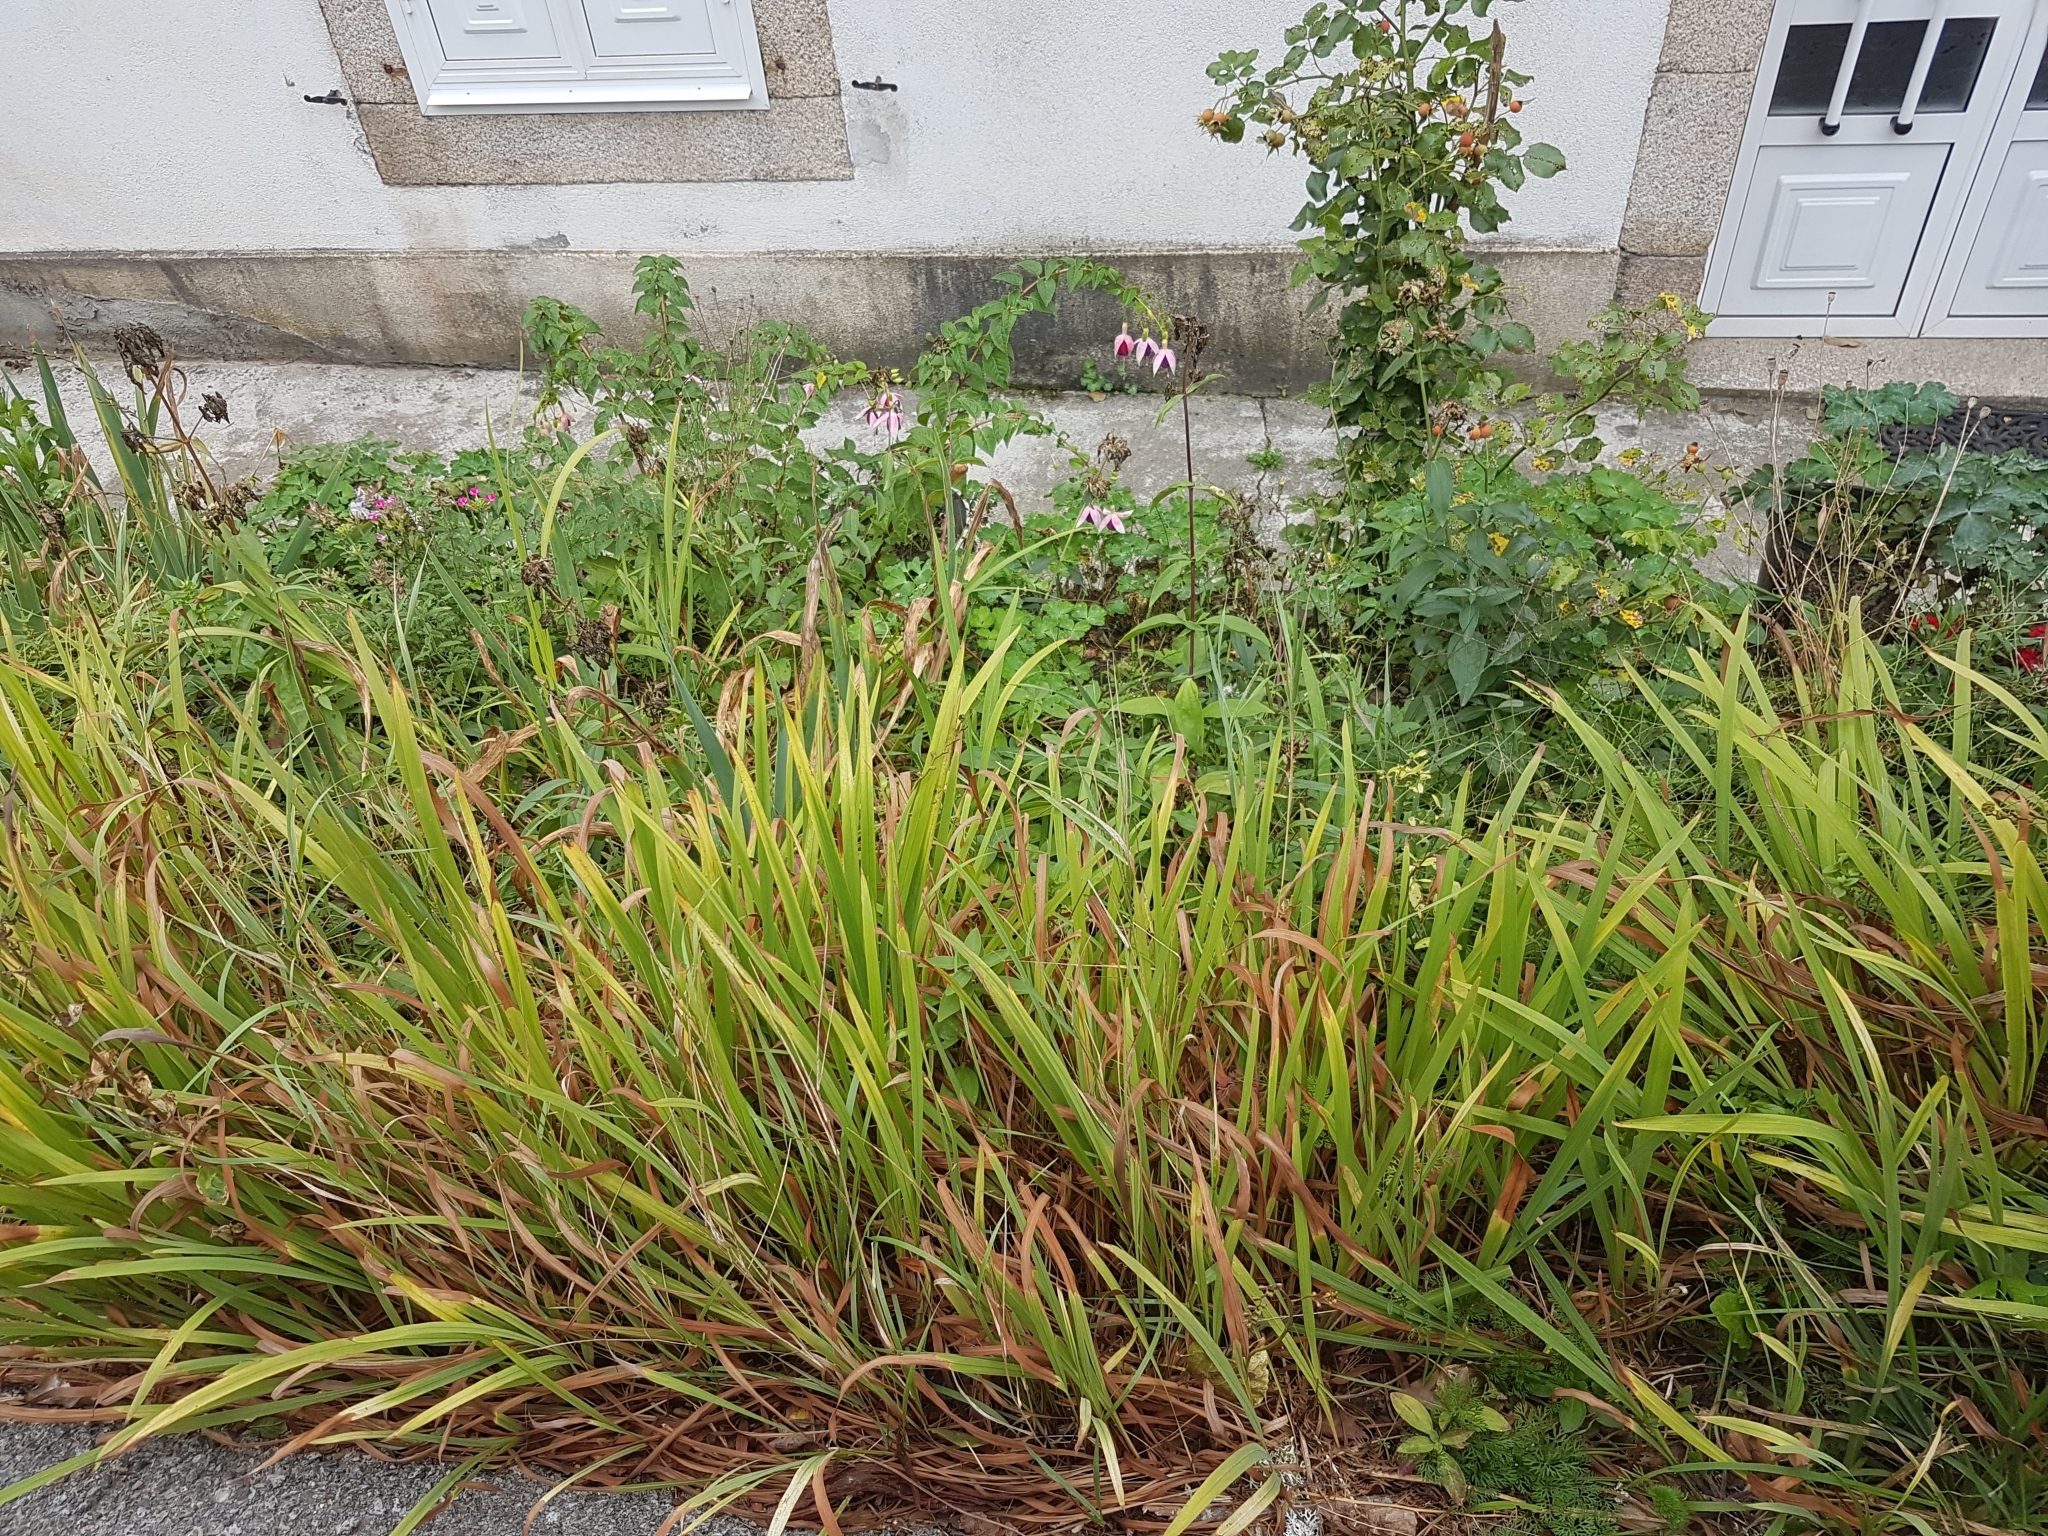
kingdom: Plantae
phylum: Tracheophyta
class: Liliopsida
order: Asparagales
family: Iridaceae
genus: Crocosmia
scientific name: Crocosmia crocosmiiflora
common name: Montbretia
